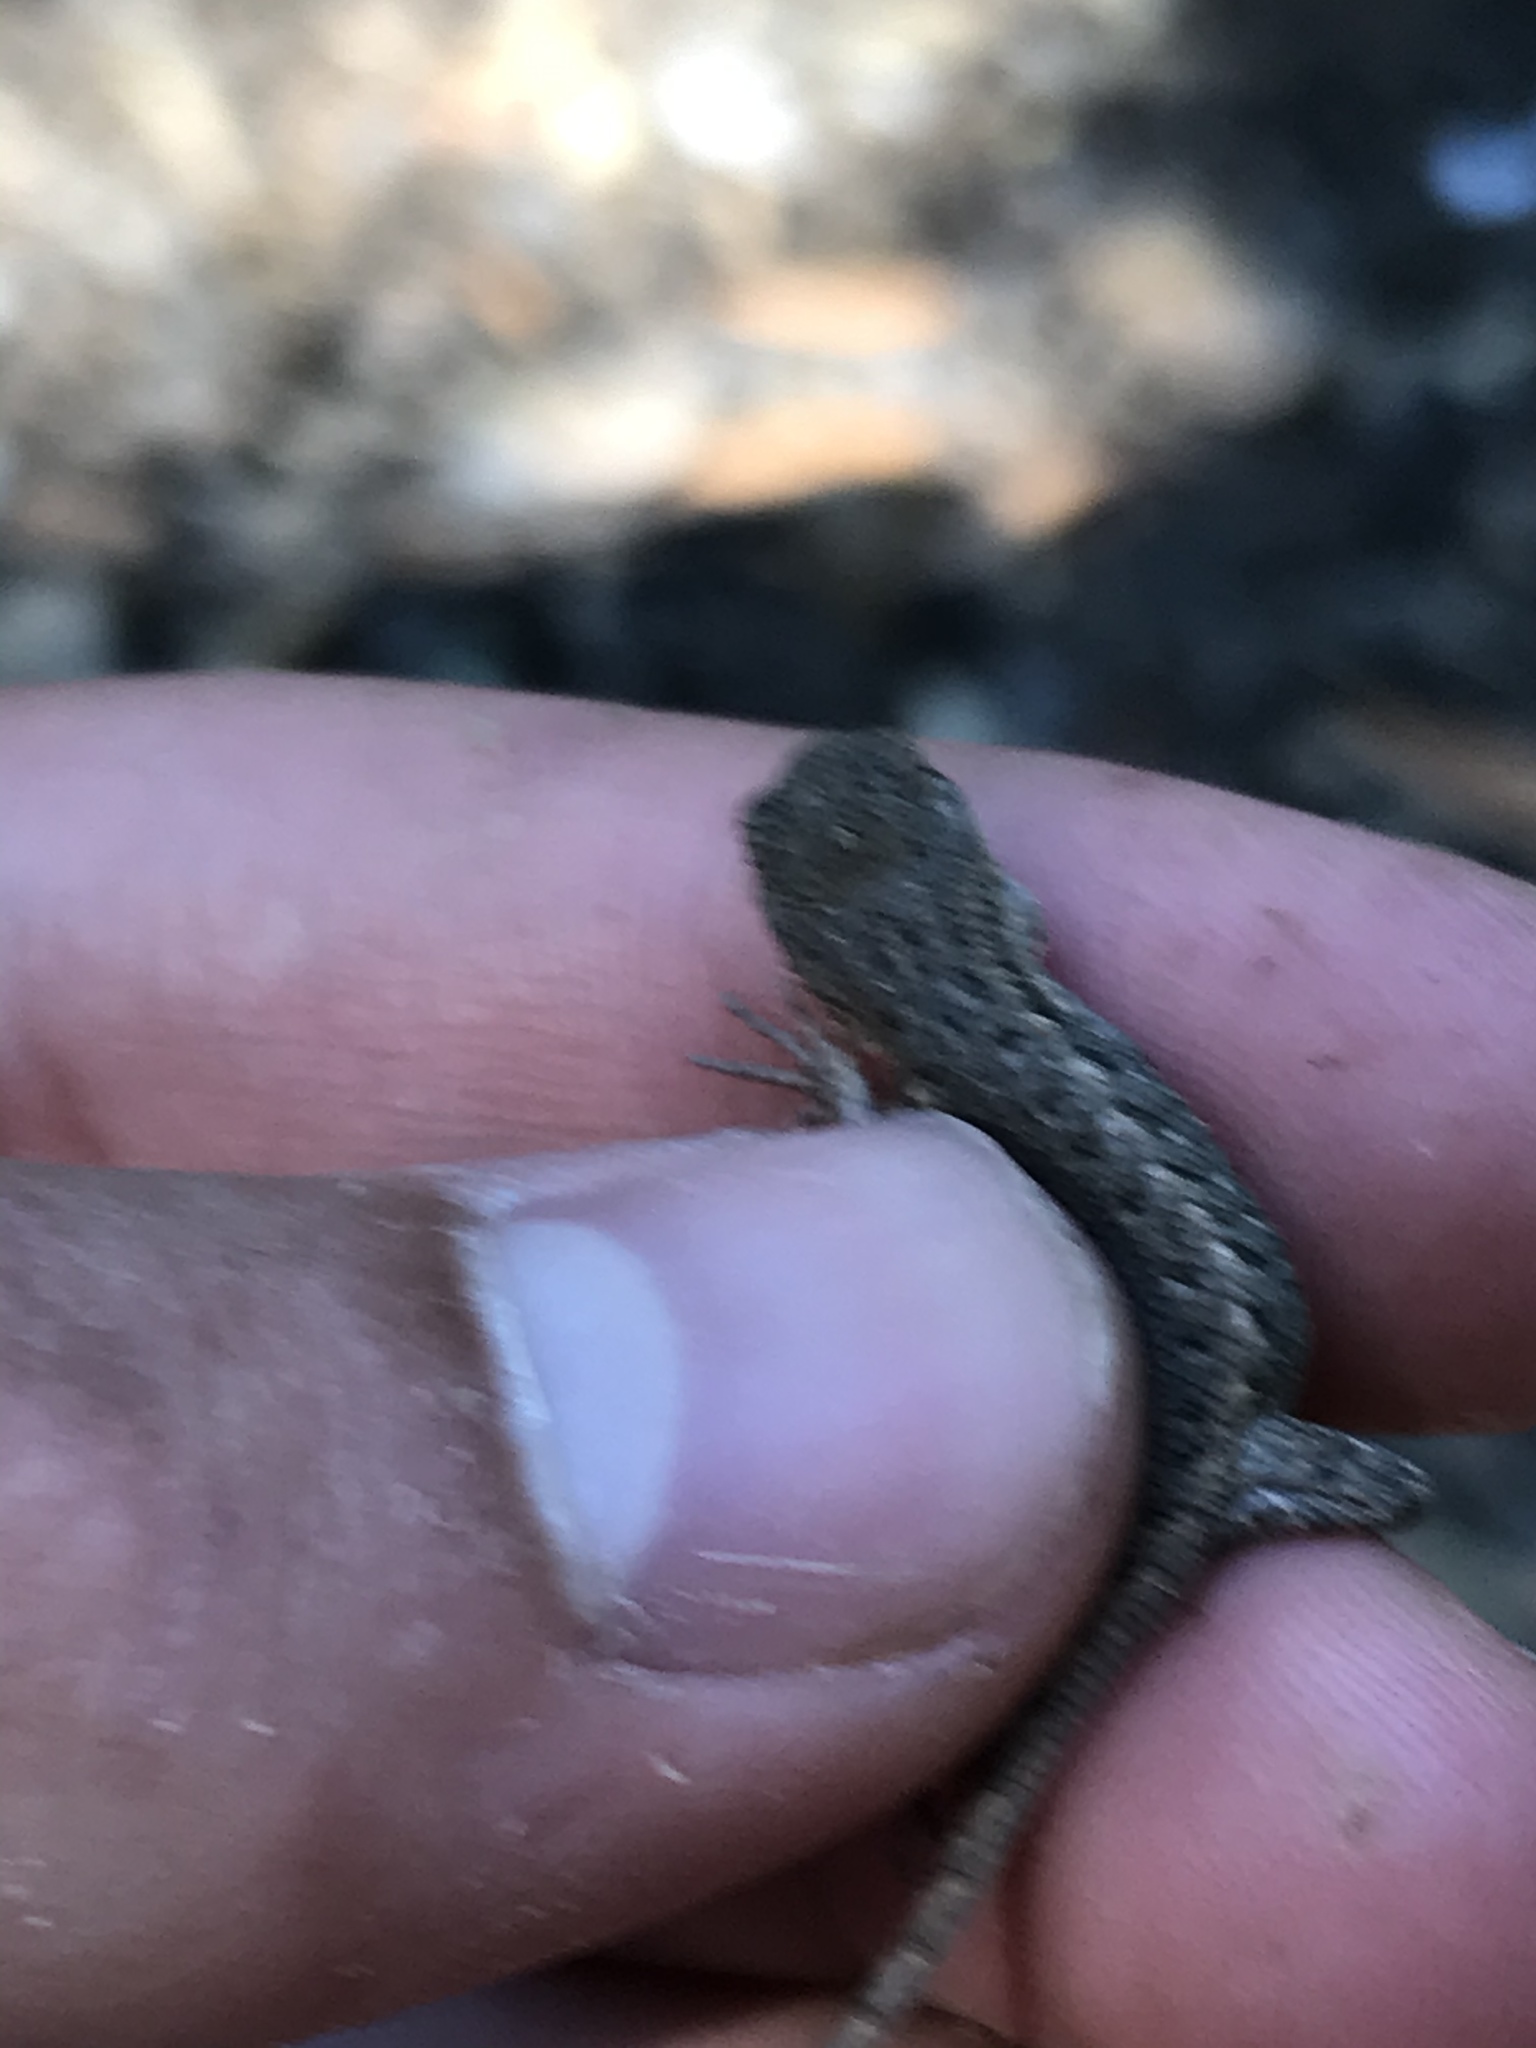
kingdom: Animalia
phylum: Chordata
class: Squamata
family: Phrynosomatidae
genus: Sceloporus
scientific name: Sceloporus occidentalis
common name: Western fence lizard
